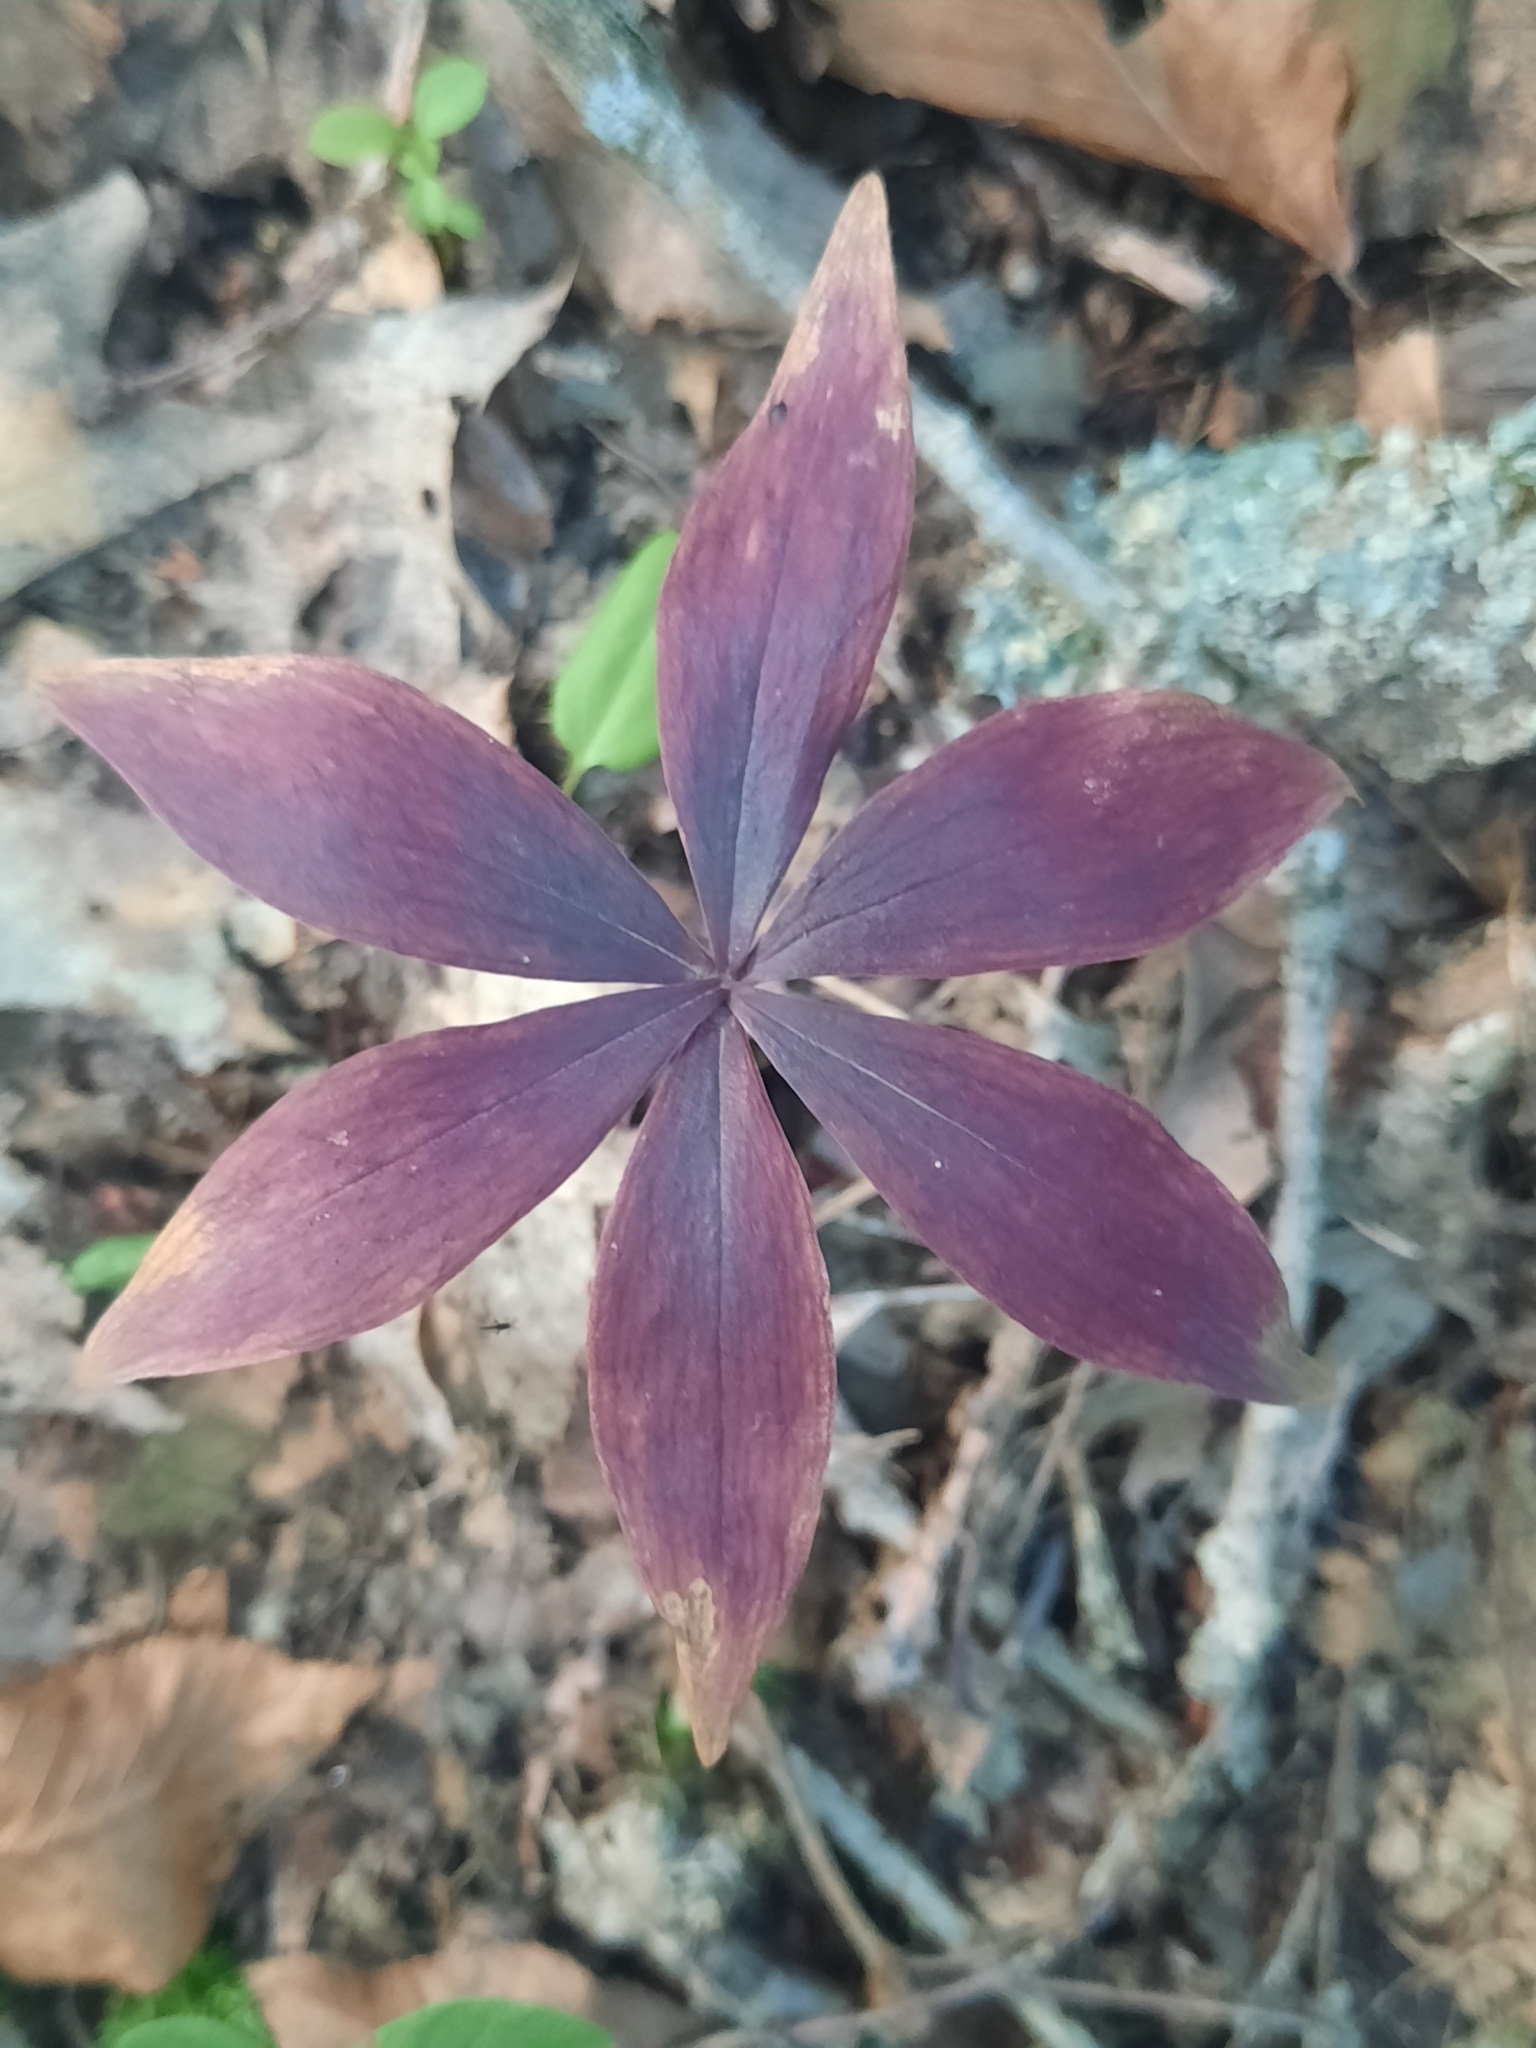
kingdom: Plantae
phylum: Tracheophyta
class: Liliopsida
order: Liliales
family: Liliaceae
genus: Medeola
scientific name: Medeola virginiana
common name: Indian cucumber-root
